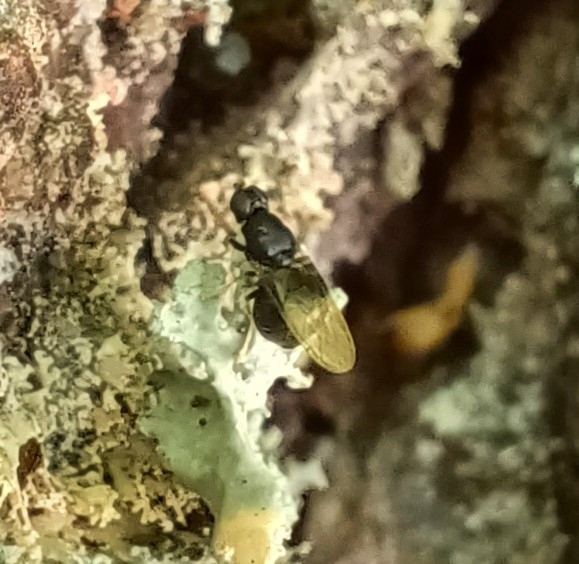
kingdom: Animalia
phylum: Arthropoda
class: Insecta
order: Diptera
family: Stratiomyidae
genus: Pachygaster
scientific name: Pachygaster atra
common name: Dark-winged black
